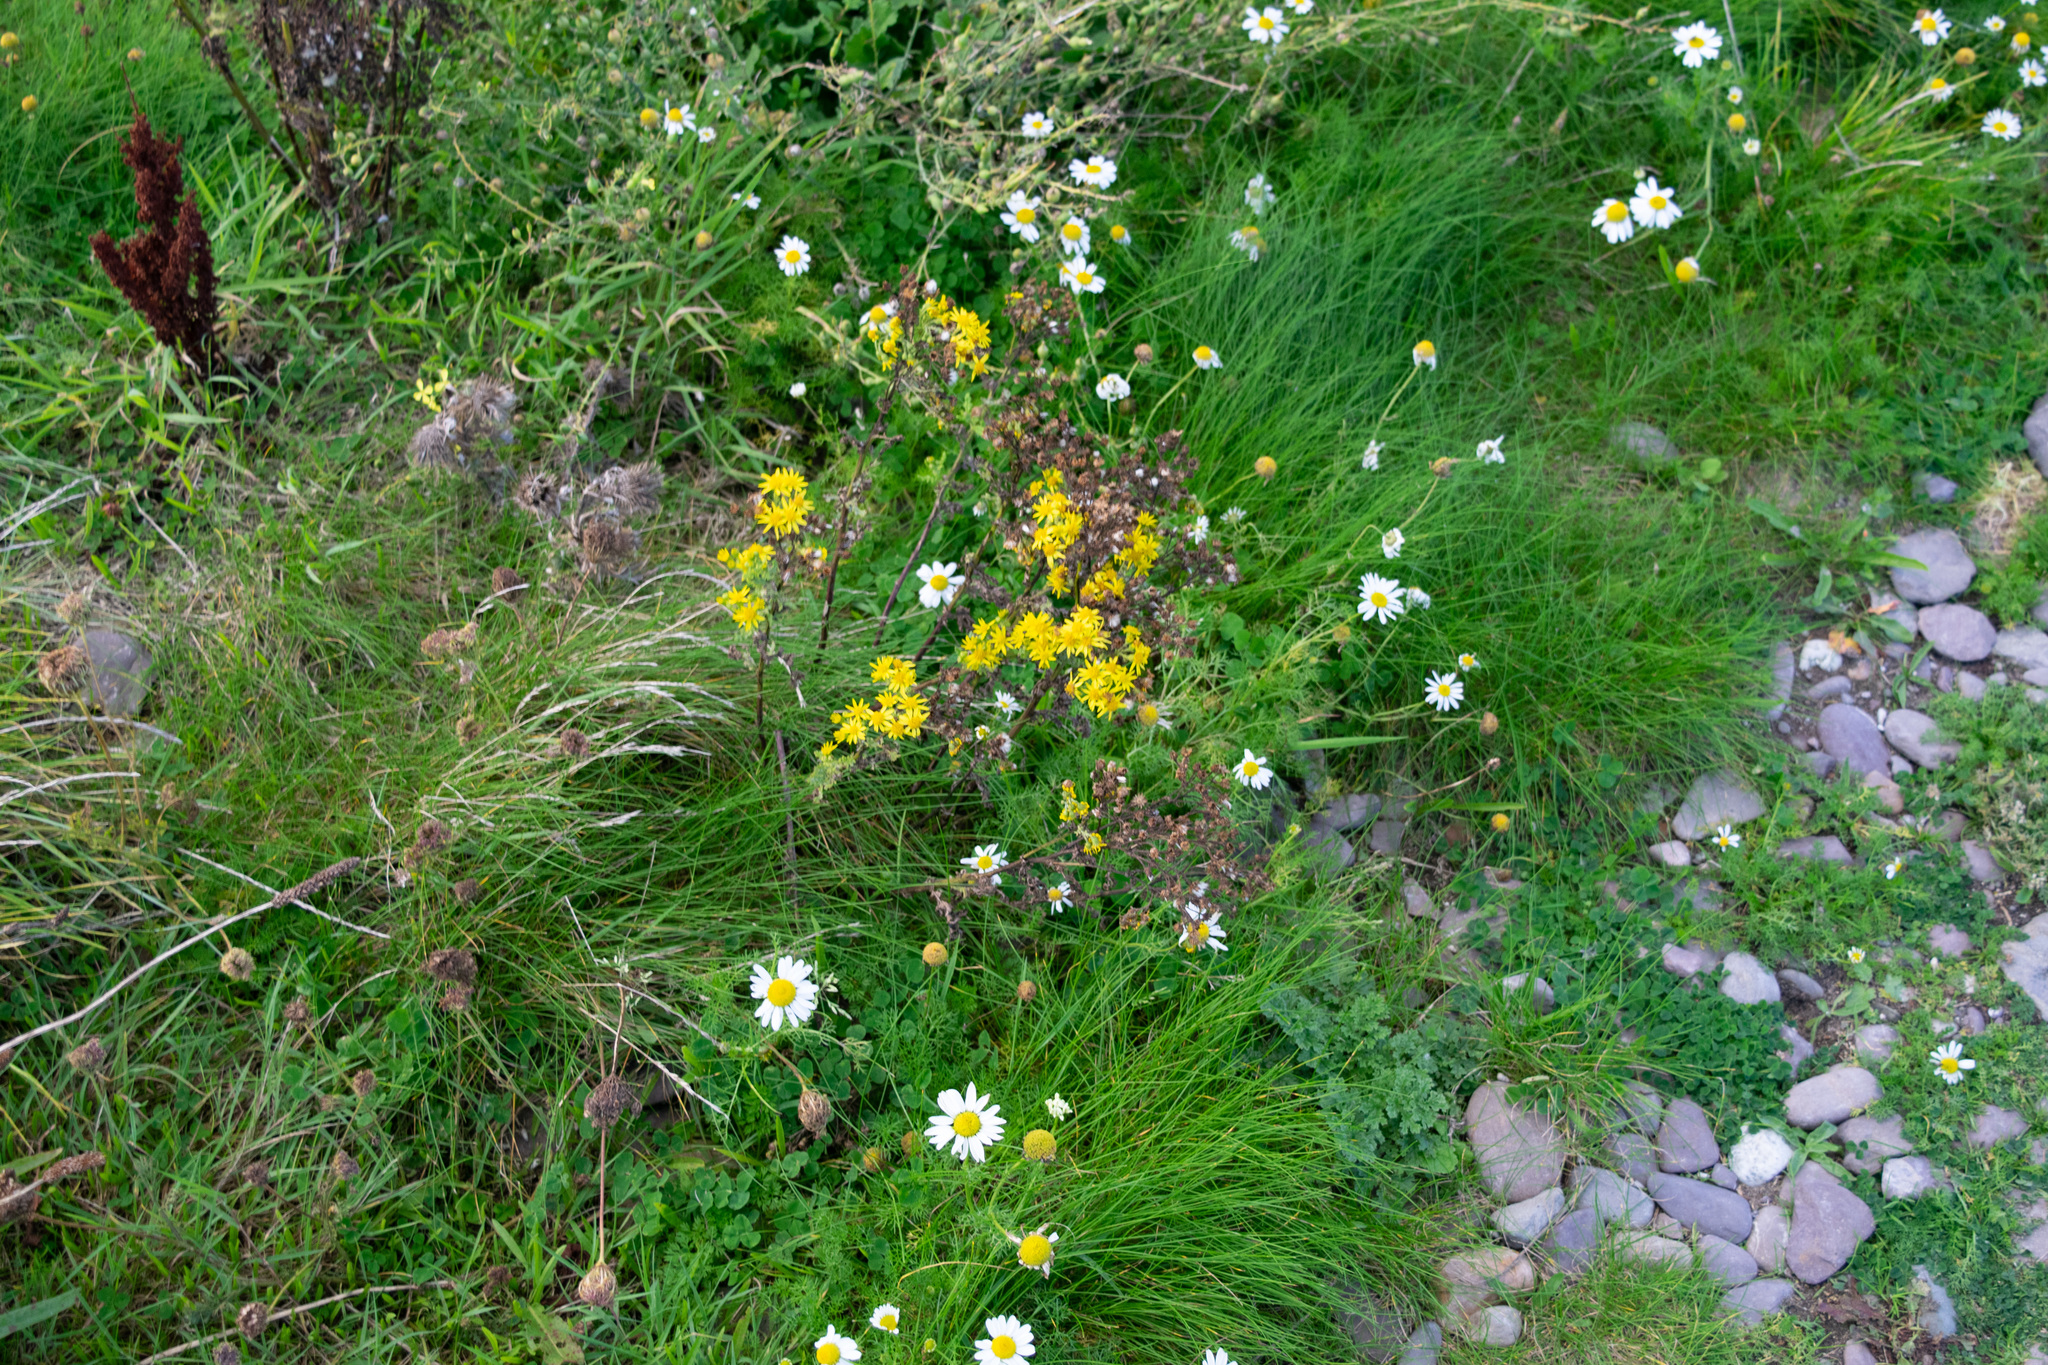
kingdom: Plantae
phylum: Tracheophyta
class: Magnoliopsida
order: Asterales
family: Asteraceae
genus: Jacobaea
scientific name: Jacobaea vulgaris
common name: Stinking willie
